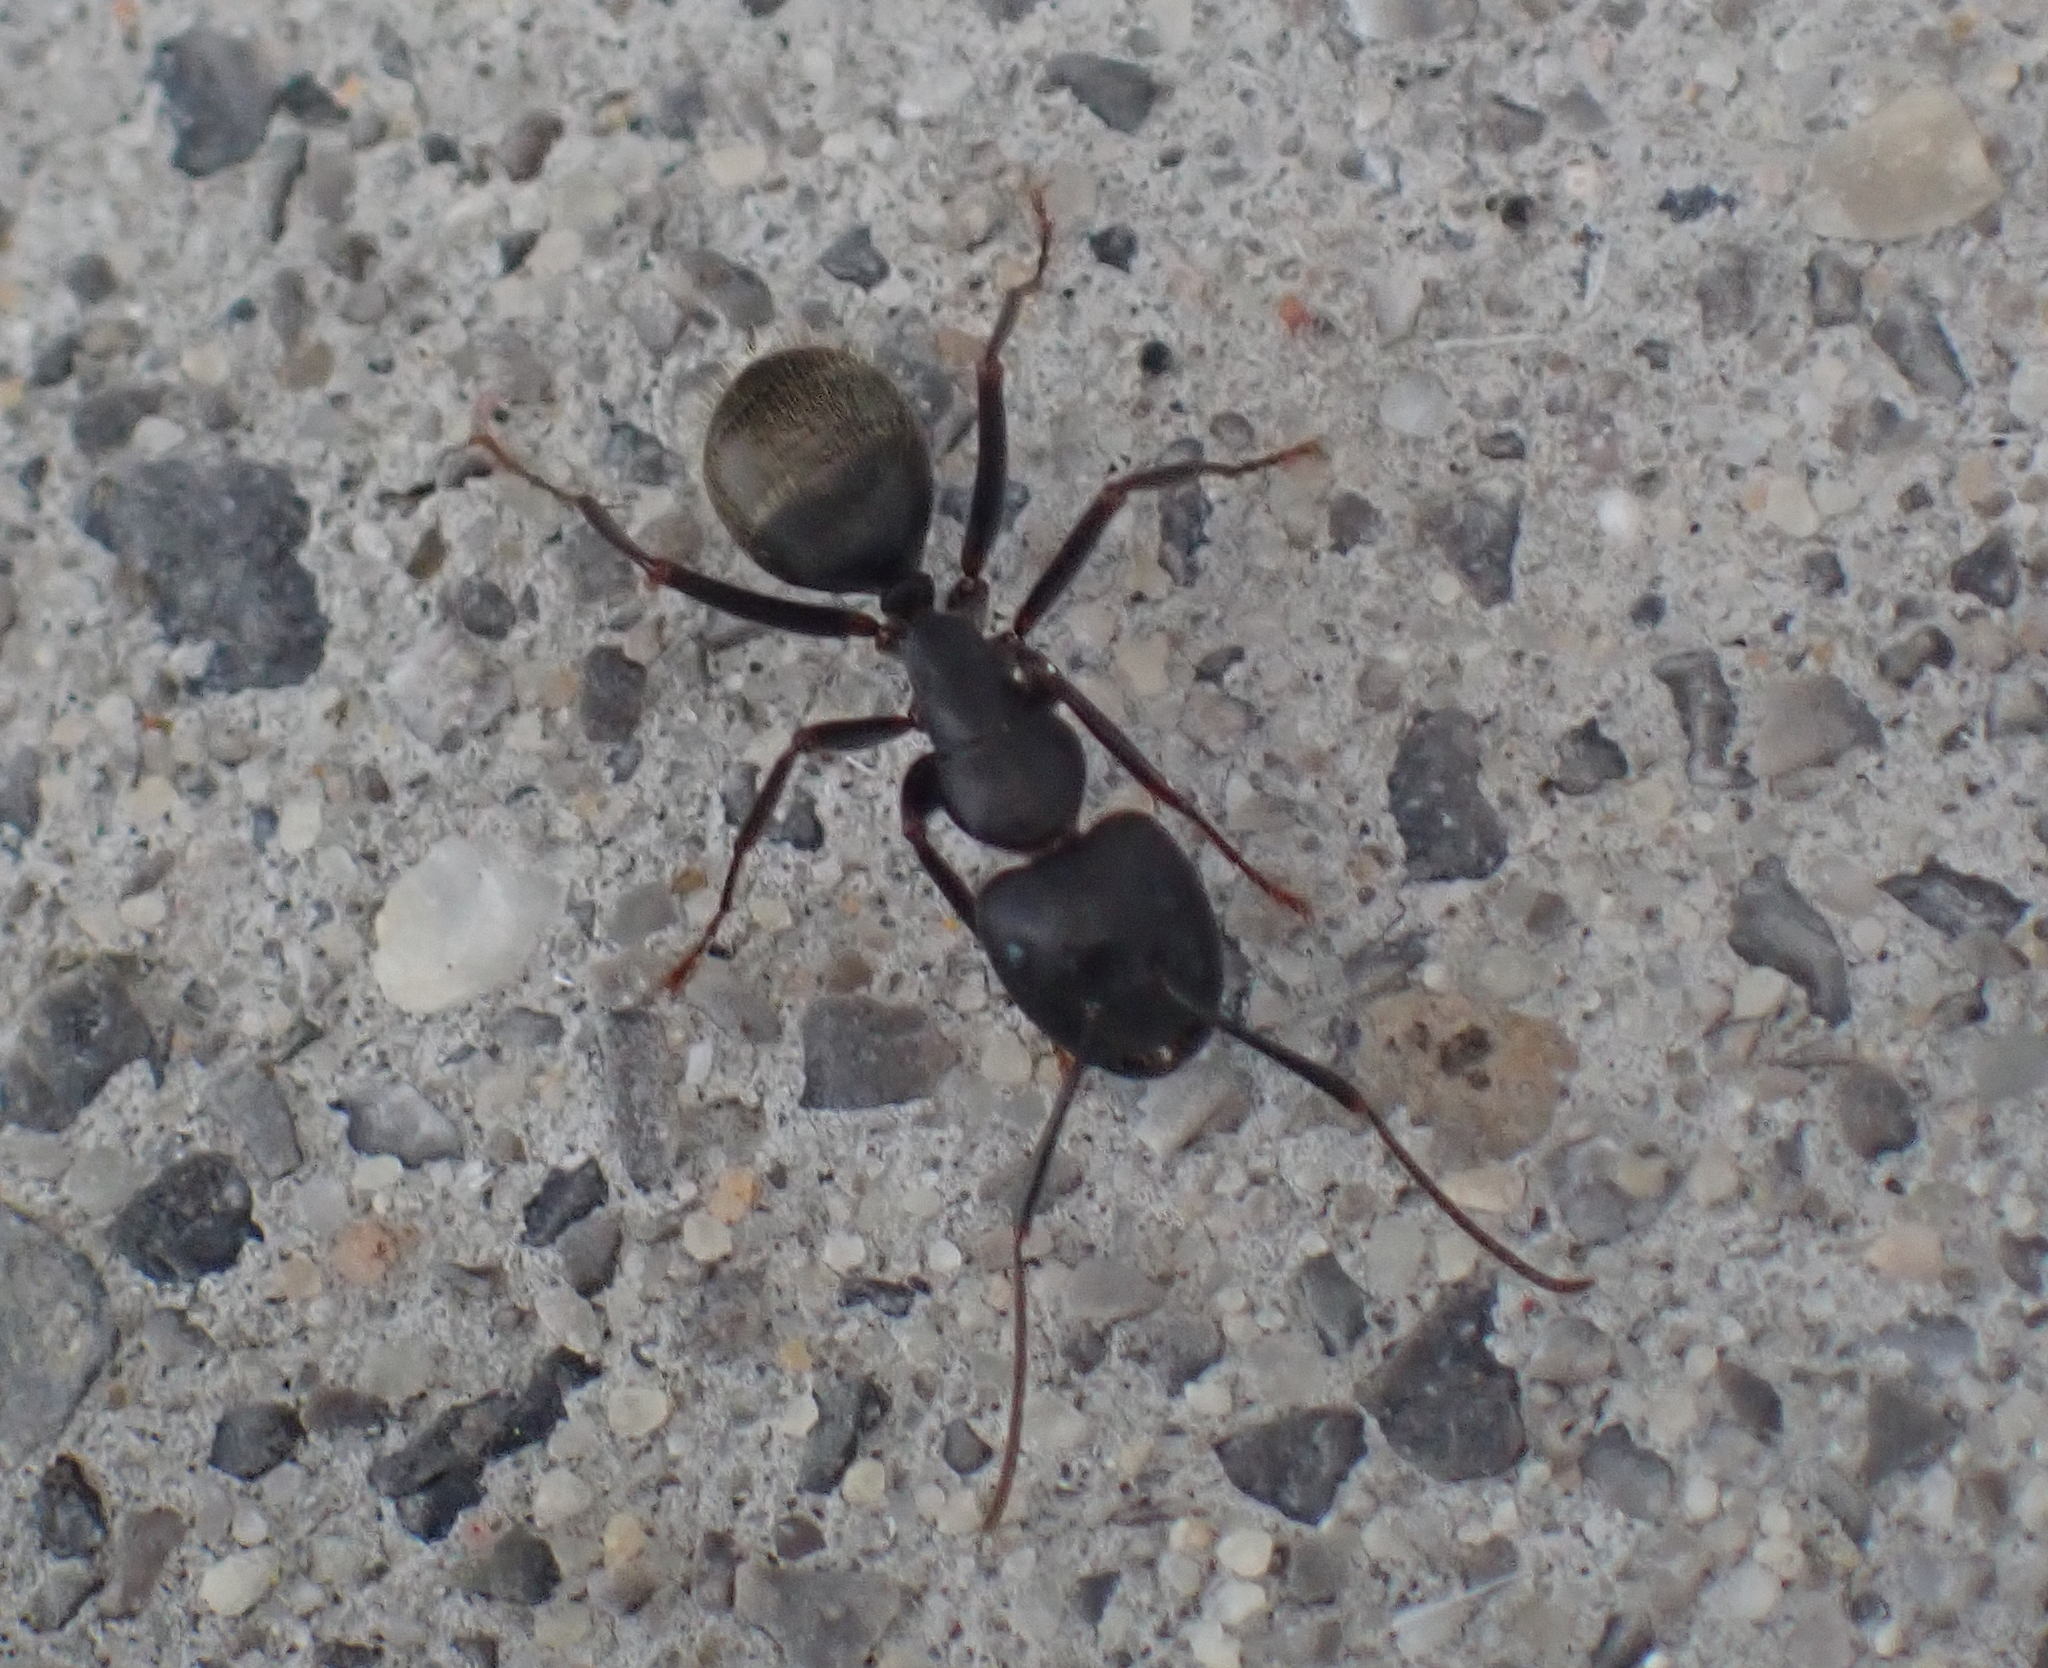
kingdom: Animalia
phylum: Arthropoda
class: Insecta
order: Hymenoptera
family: Formicidae
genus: Camponotus
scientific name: Camponotus pennsylvanicus
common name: Black carpenter ant
